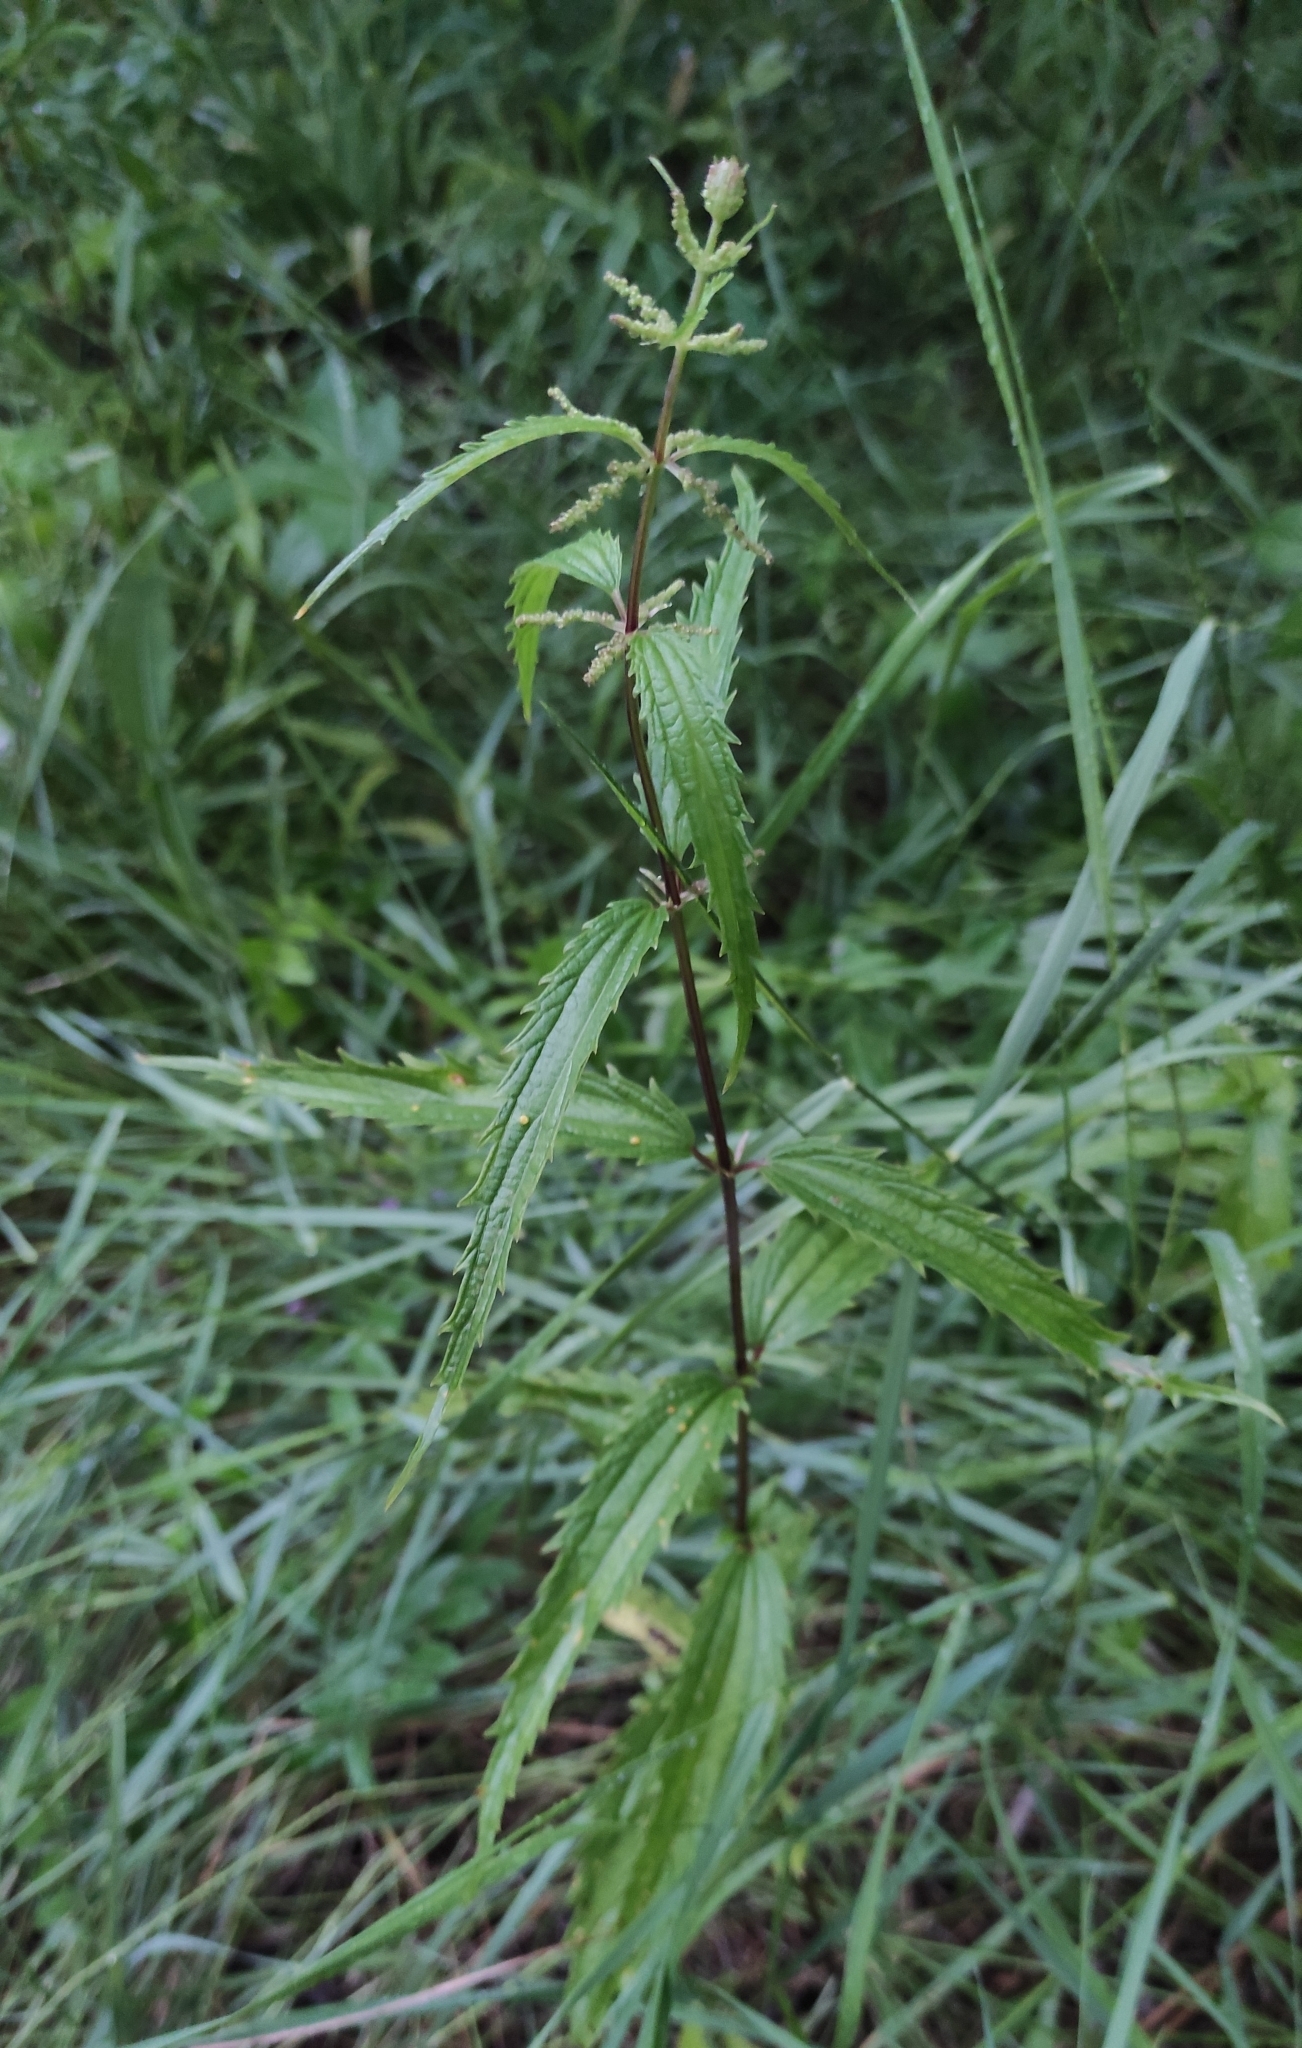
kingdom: Plantae
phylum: Tracheophyta
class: Magnoliopsida
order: Rosales
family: Urticaceae
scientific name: Urticaceae
